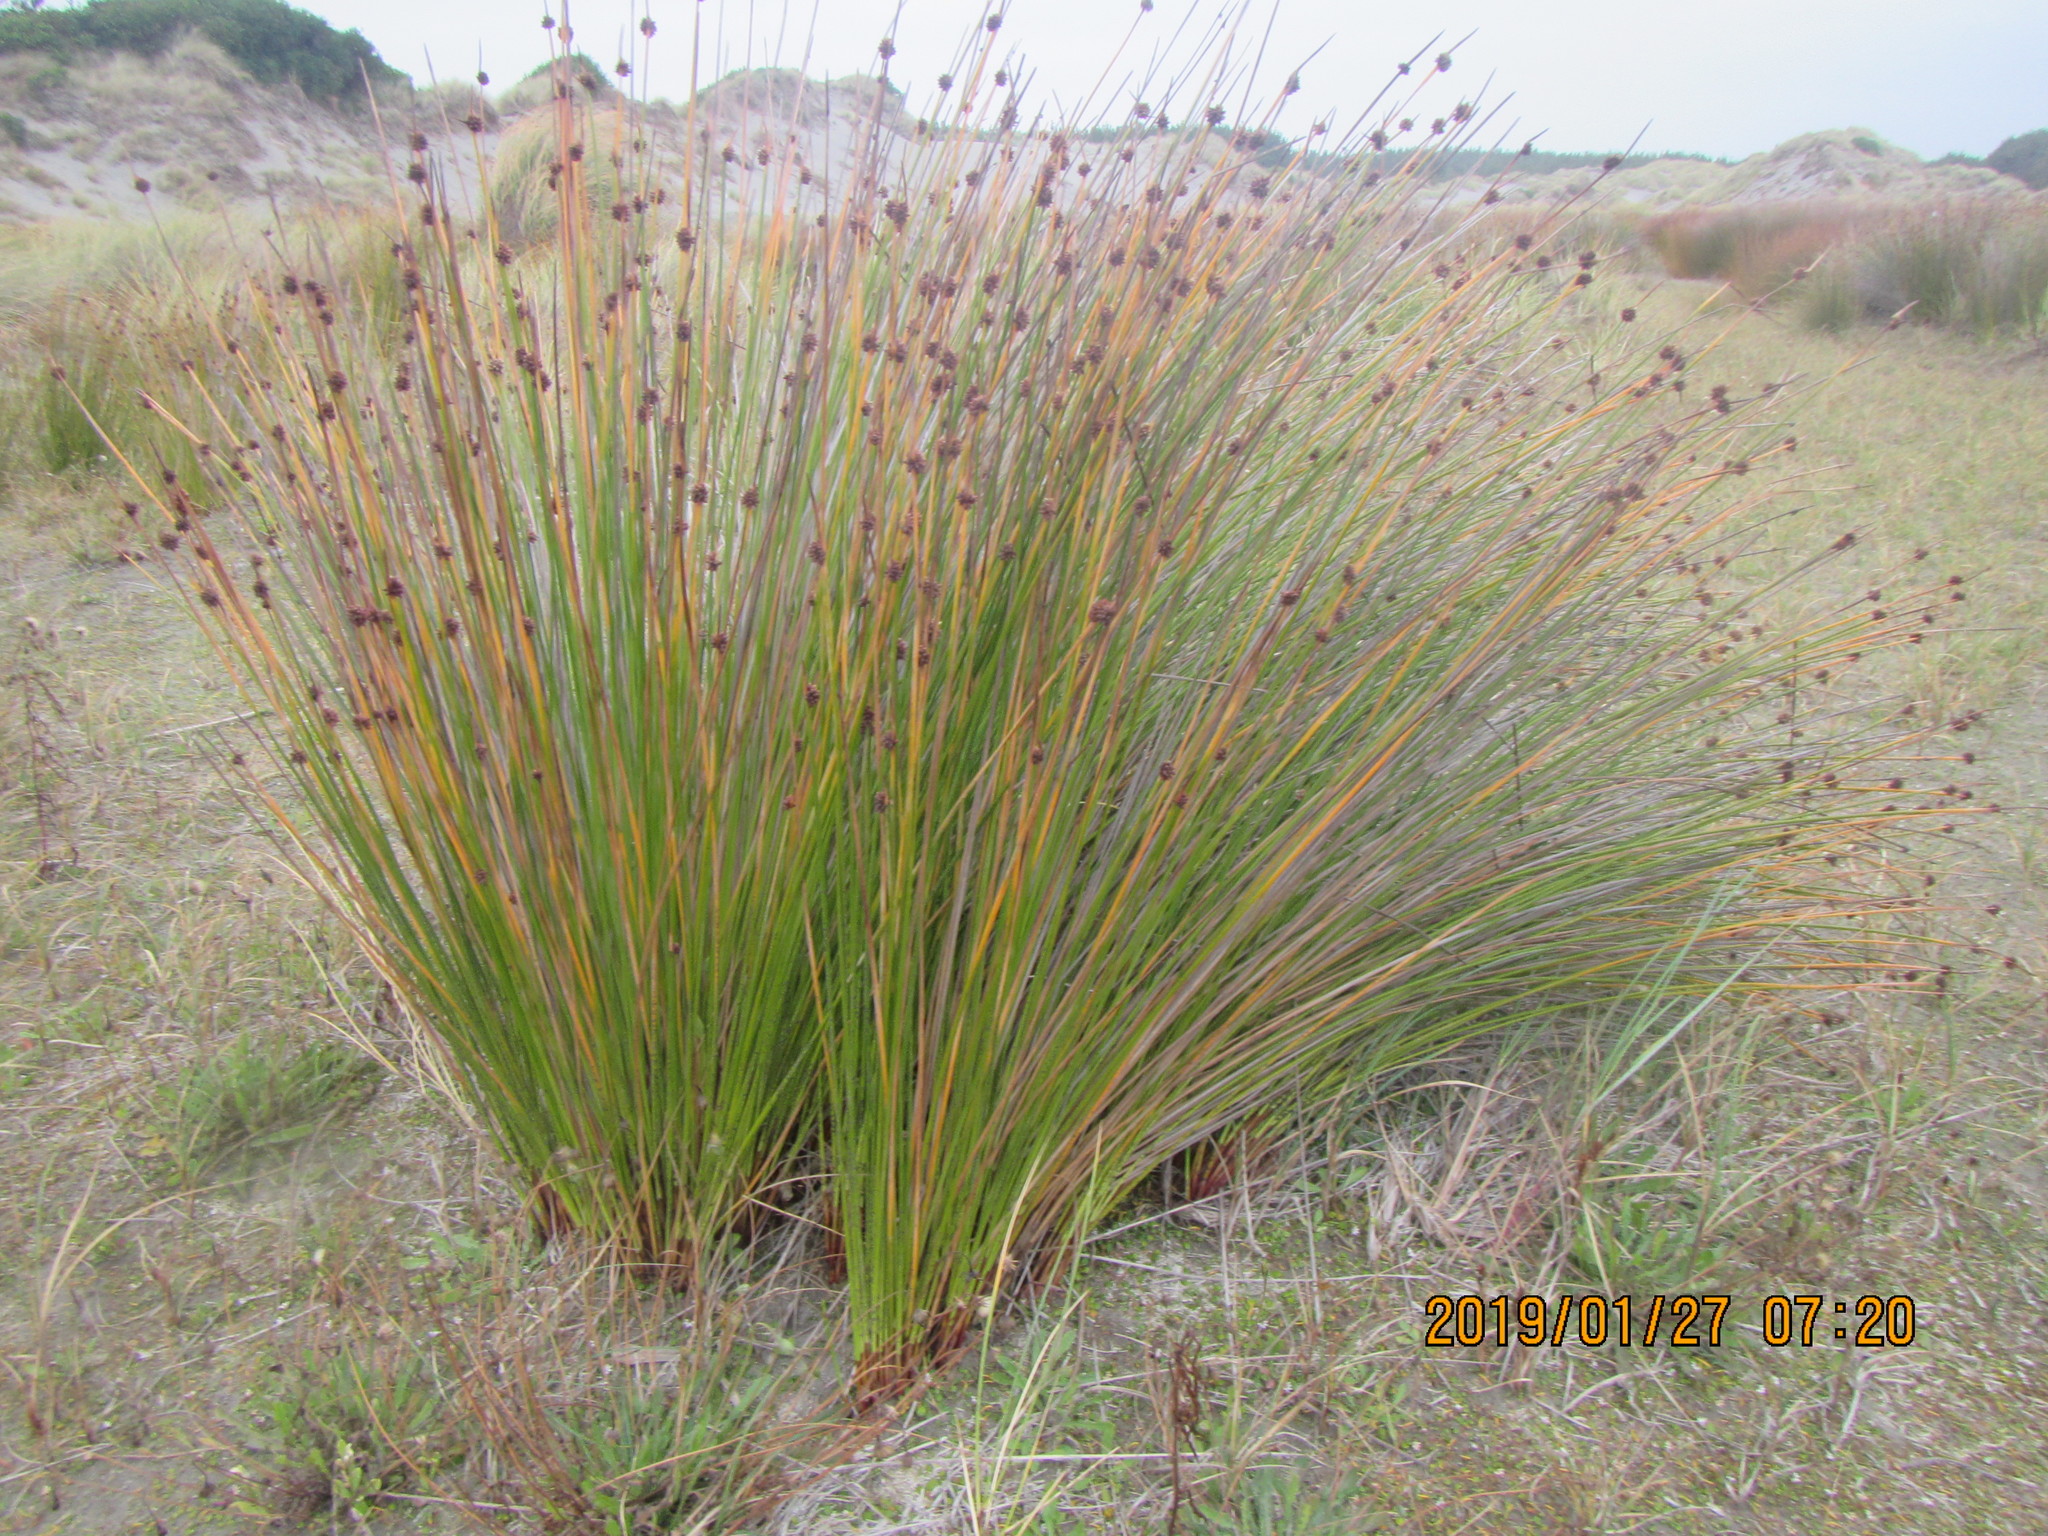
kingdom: Plantae
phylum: Tracheophyta
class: Liliopsida
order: Poales
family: Cyperaceae
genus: Ficinia
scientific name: Ficinia nodosa
